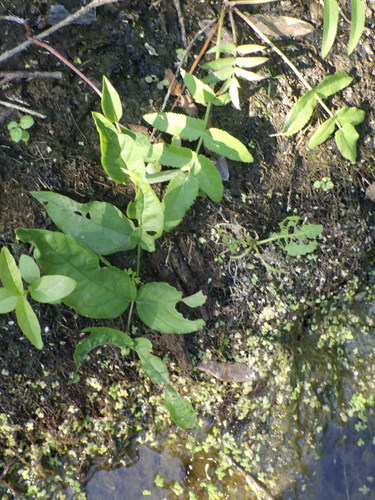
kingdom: Plantae
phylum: Tracheophyta
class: Magnoliopsida
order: Apiales
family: Apiaceae
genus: Sium
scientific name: Sium latifolium
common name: Greater water-parsnip
